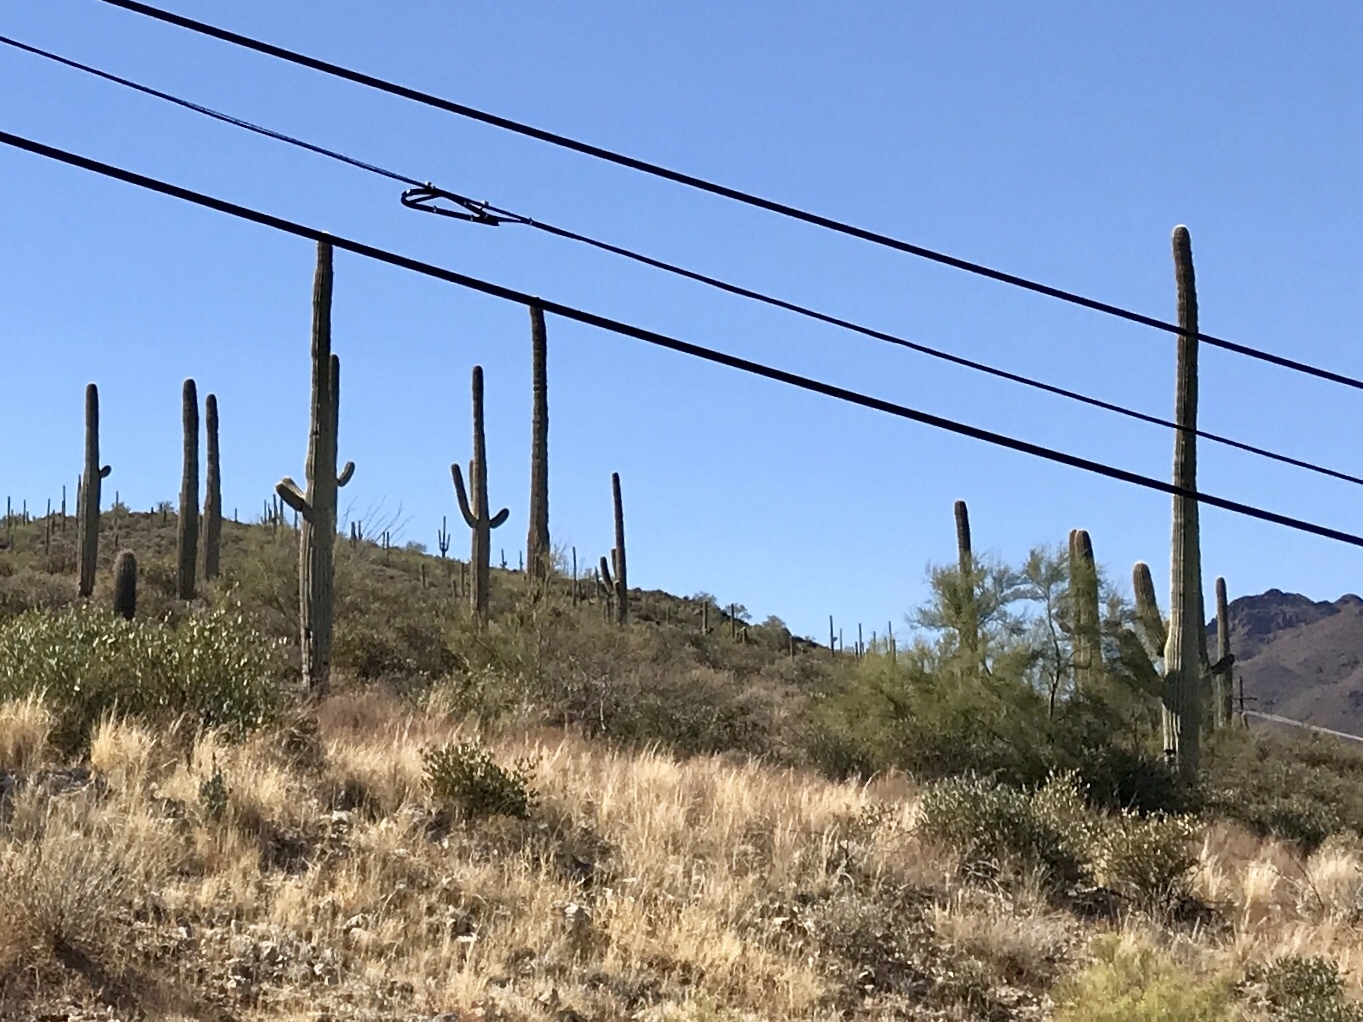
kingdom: Plantae
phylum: Tracheophyta
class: Magnoliopsida
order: Caryophyllales
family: Cactaceae
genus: Carnegiea
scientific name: Carnegiea gigantea
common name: Saguaro
